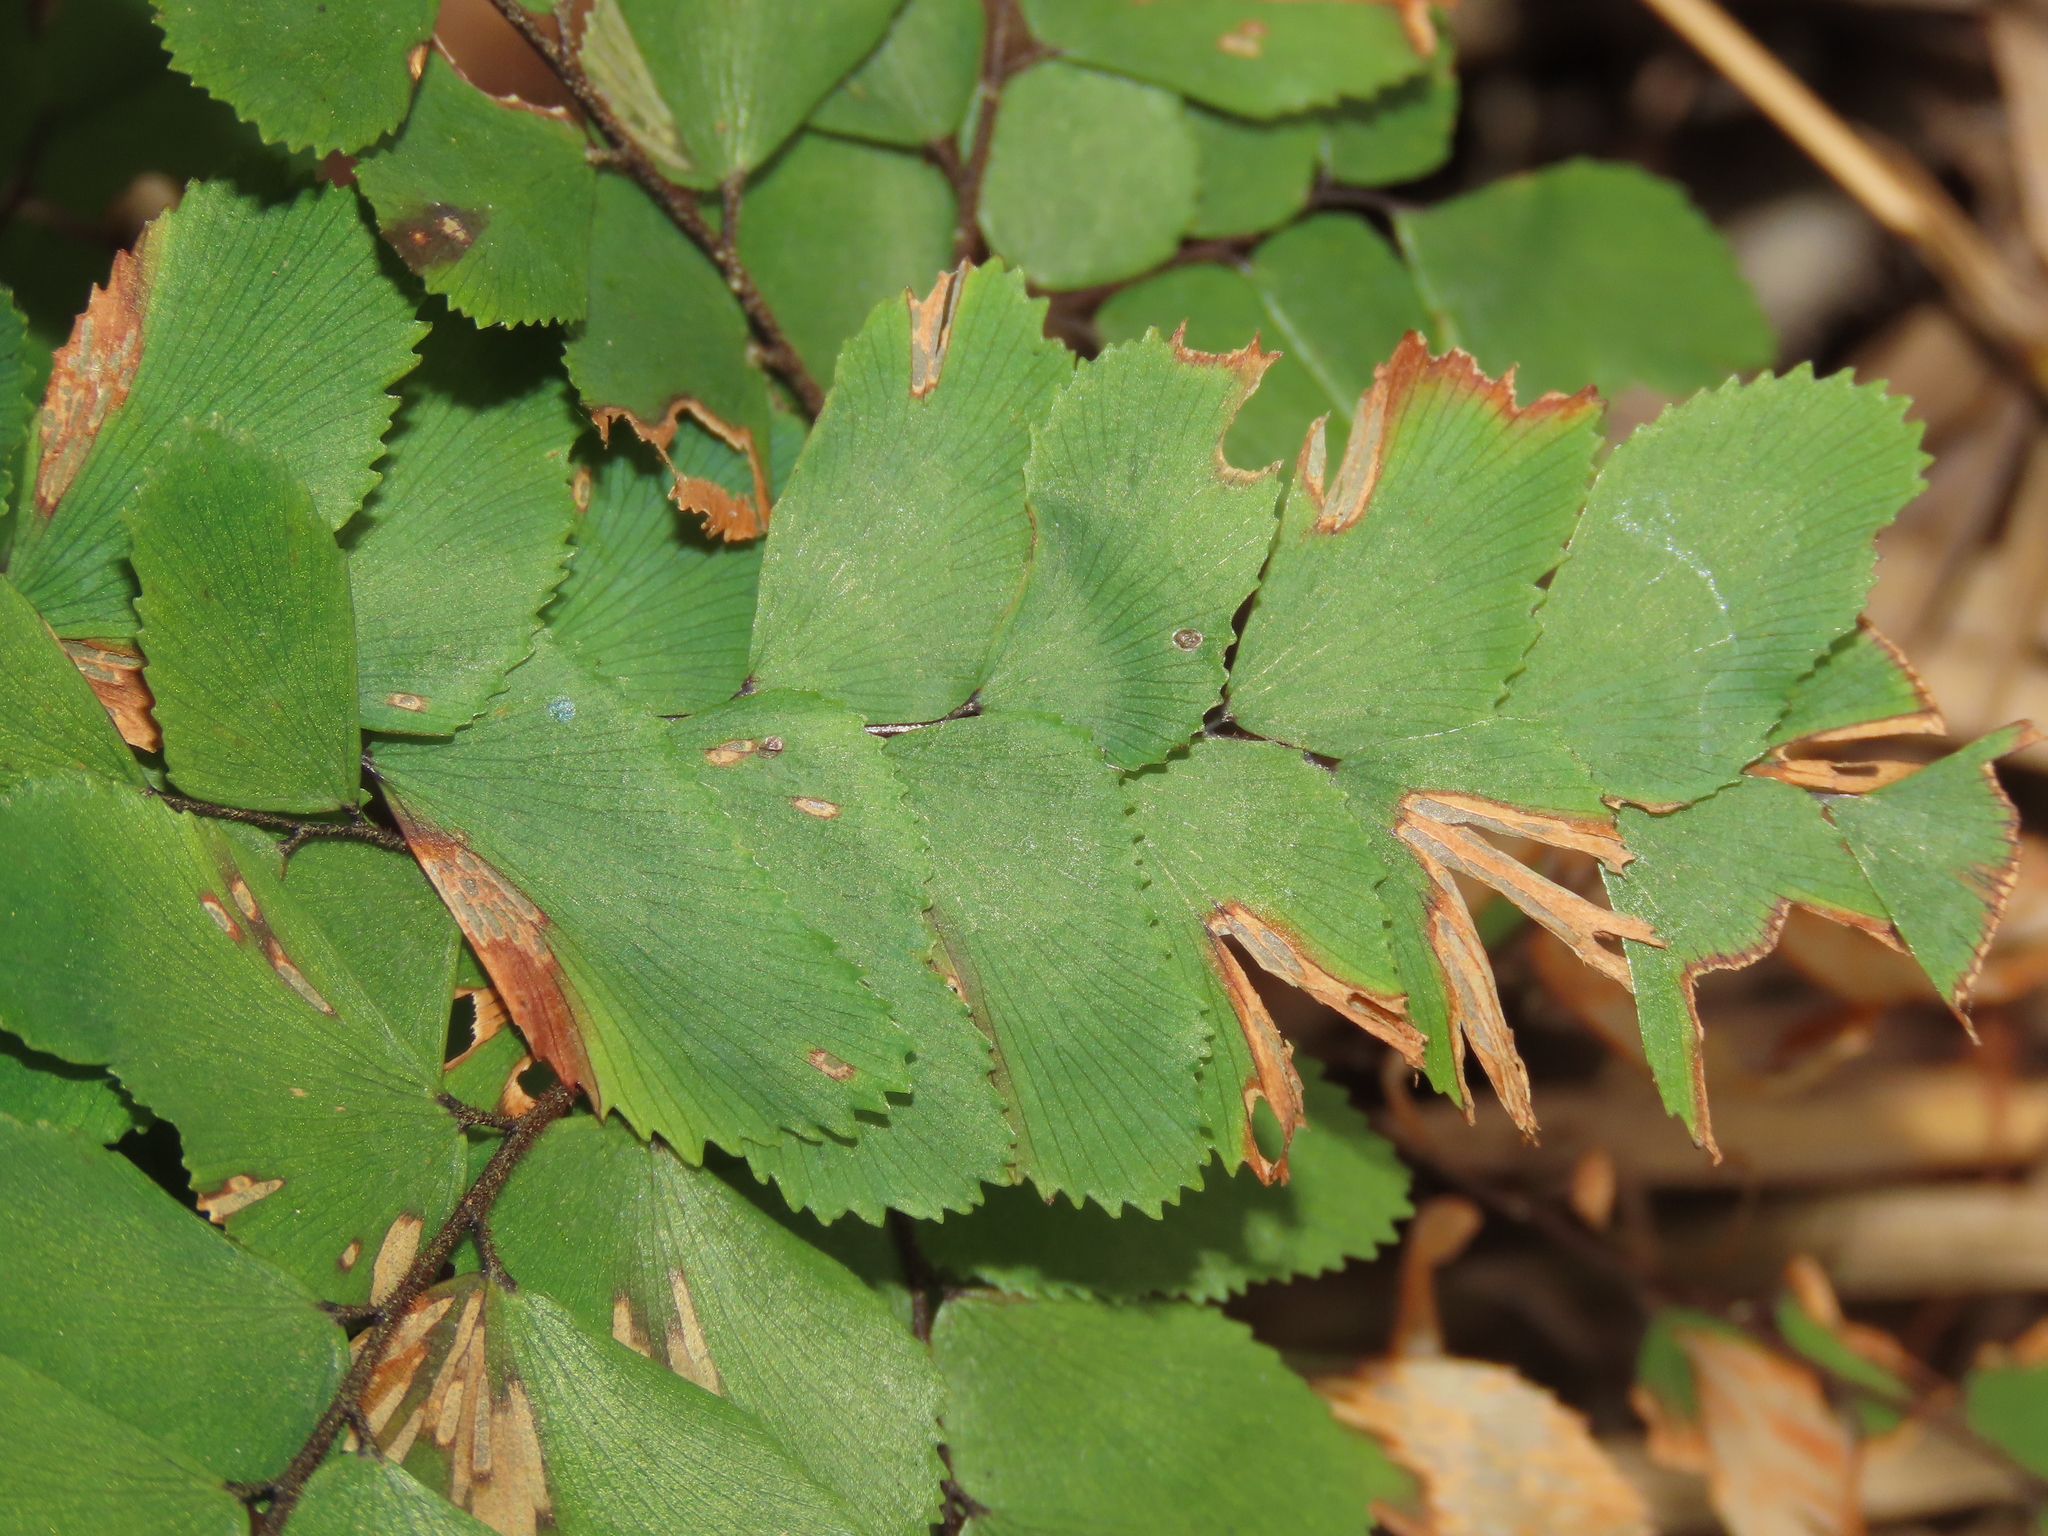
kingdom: Plantae
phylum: Tracheophyta
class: Polypodiopsida
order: Polypodiales
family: Pteridaceae
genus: Adiantum
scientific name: Adiantum flabellulatum
